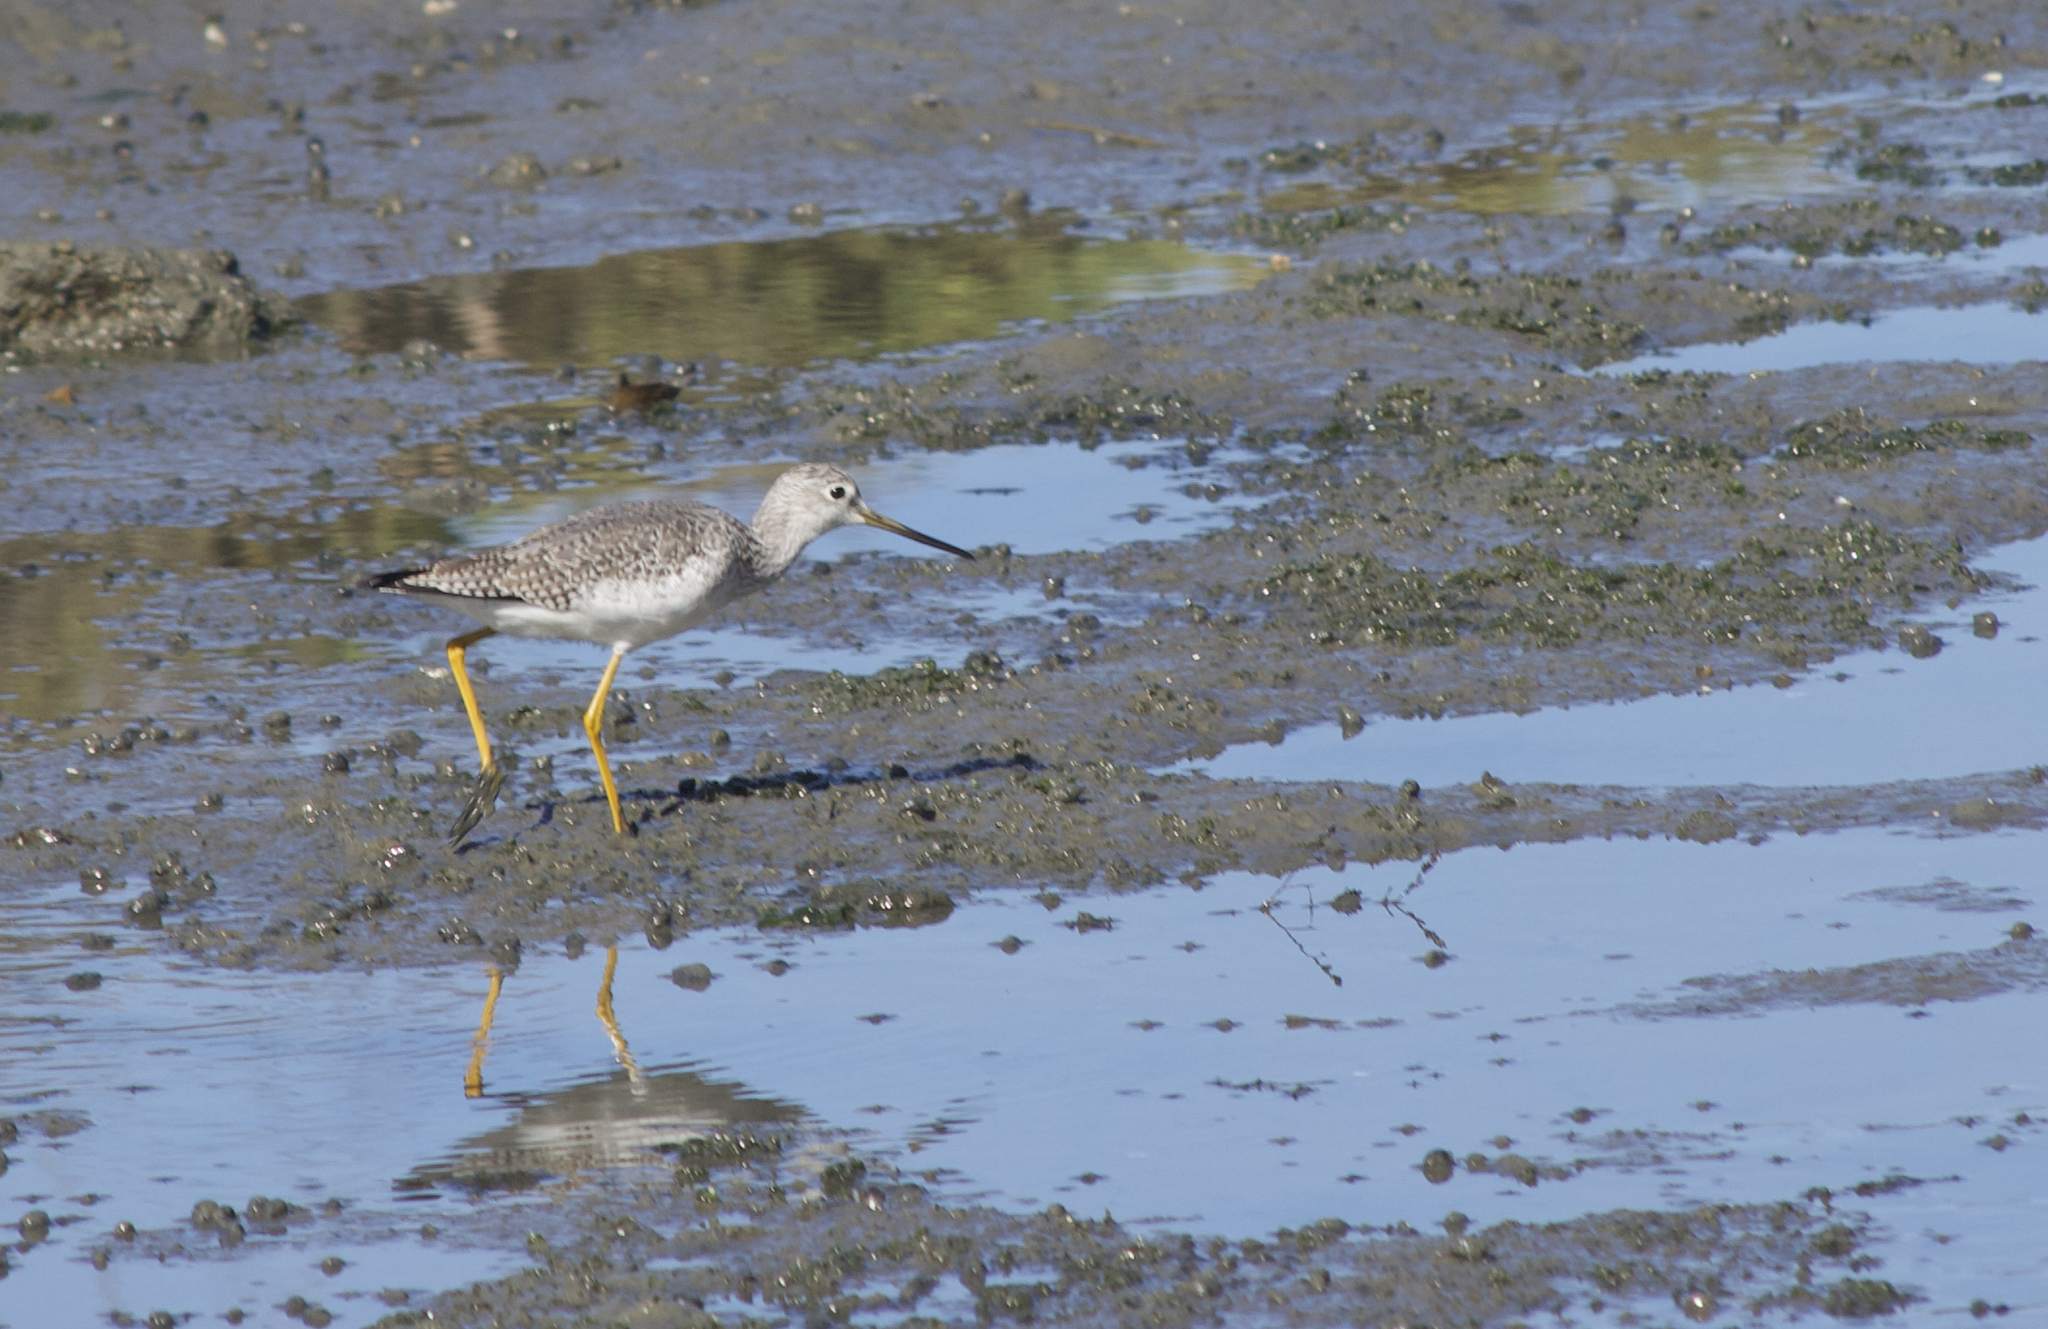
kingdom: Animalia
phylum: Chordata
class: Aves
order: Charadriiformes
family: Scolopacidae
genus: Tringa
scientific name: Tringa melanoleuca
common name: Greater yellowlegs
